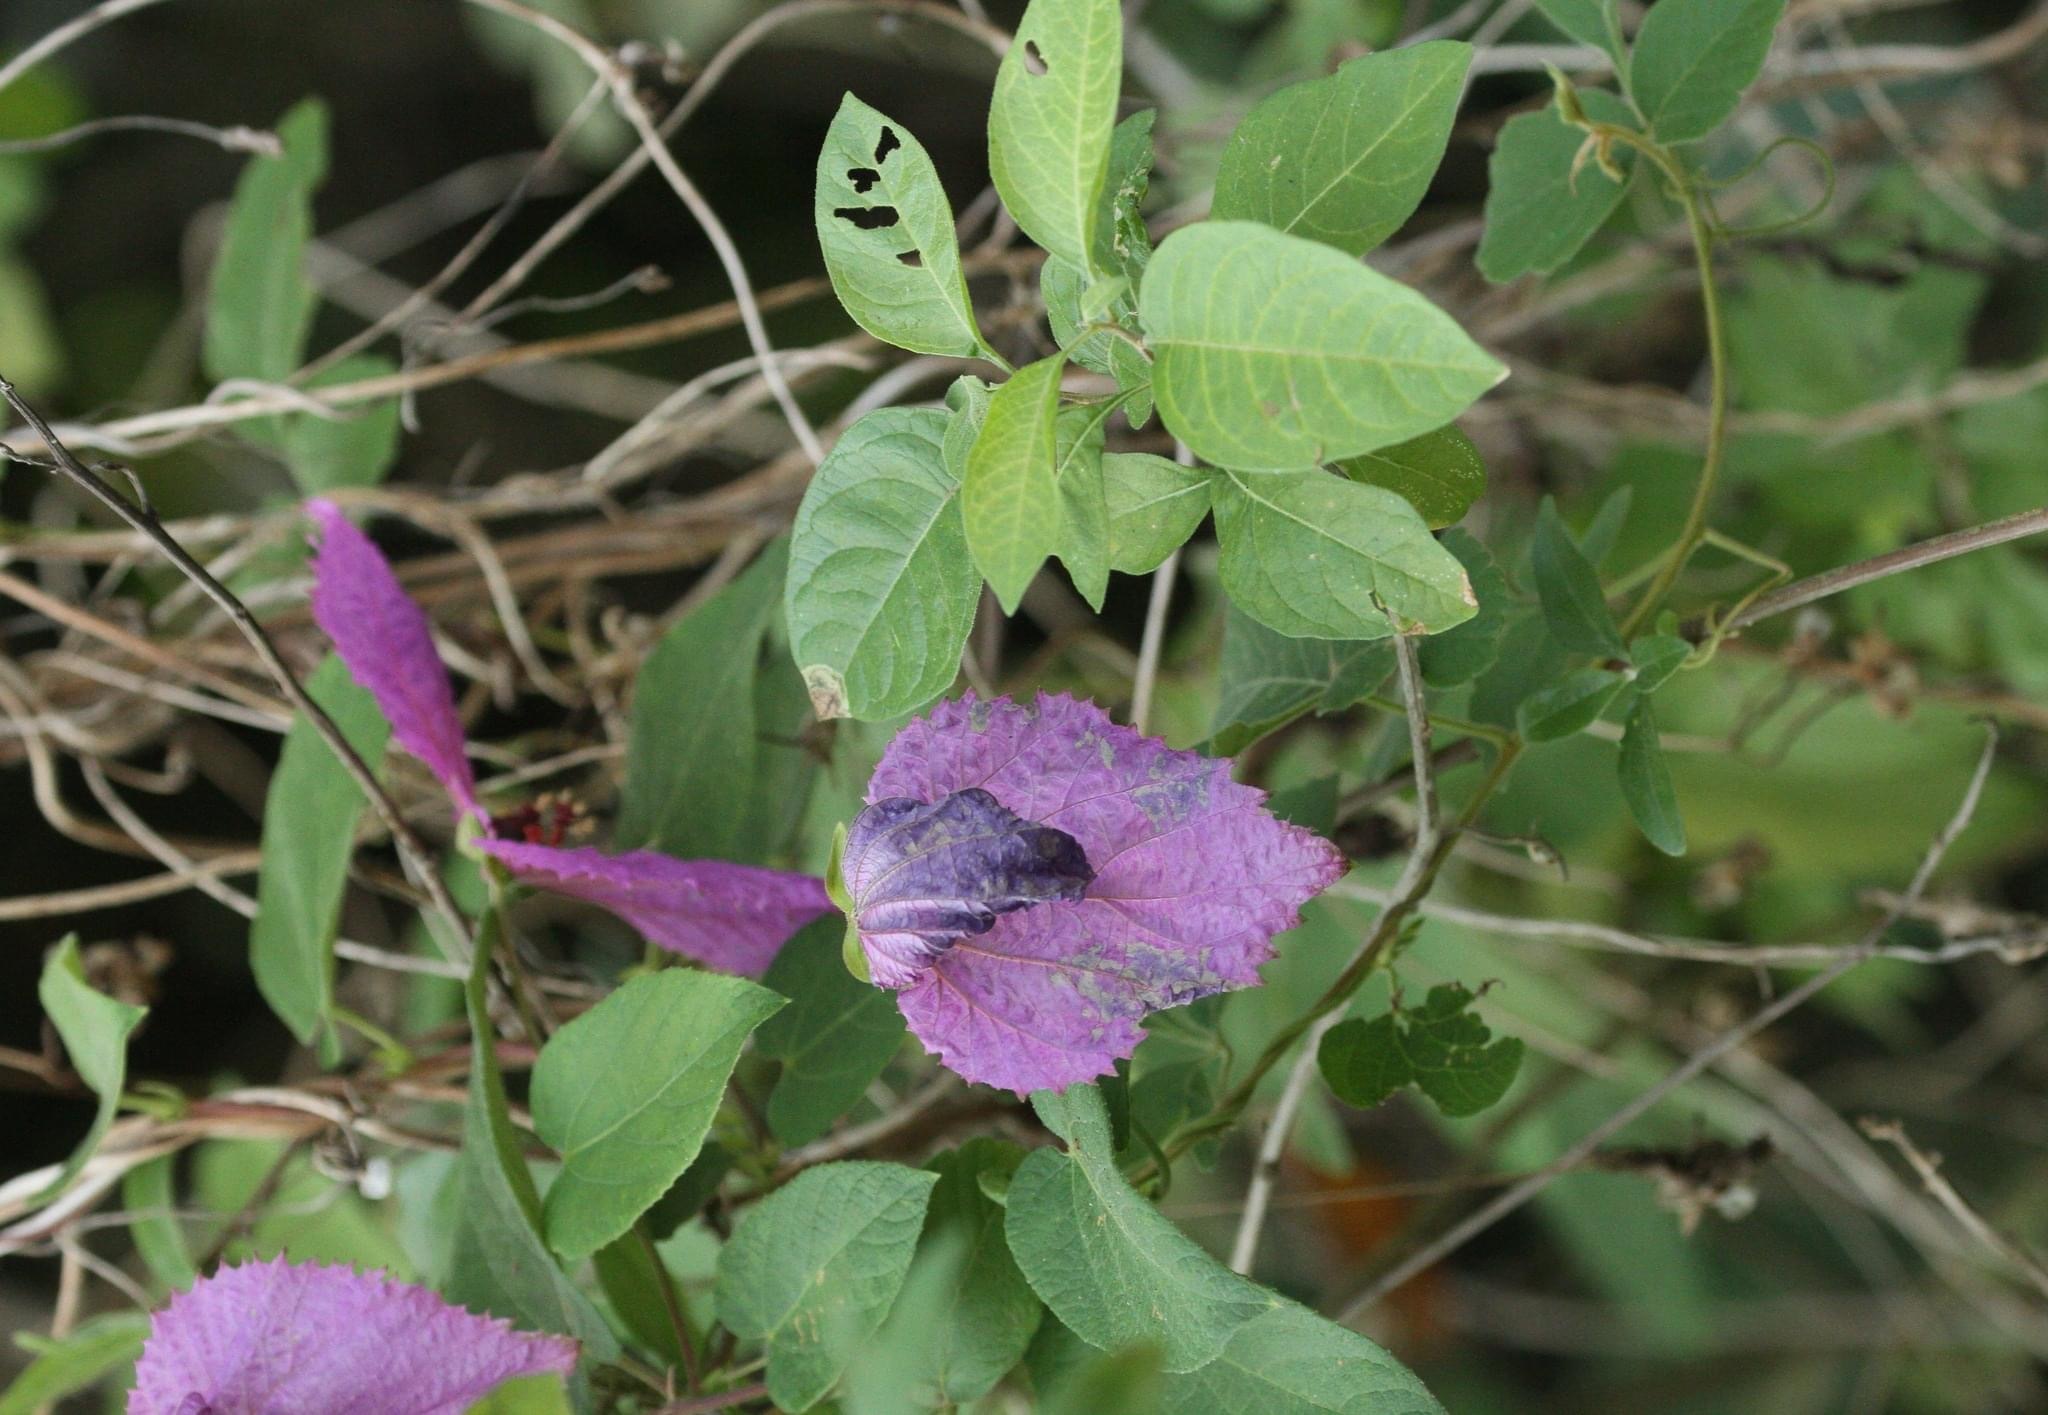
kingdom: Plantae
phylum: Tracheophyta
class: Magnoliopsida
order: Malpighiales
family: Euphorbiaceae
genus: Dalechampia
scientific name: Dalechampia aristolochiifolia
